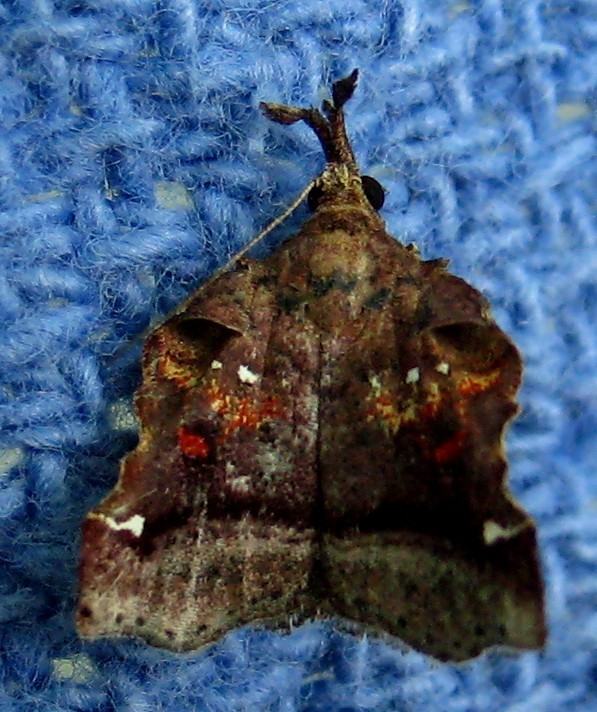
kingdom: Animalia
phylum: Arthropoda
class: Insecta
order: Lepidoptera
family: Pyralidae
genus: Clydonopteron
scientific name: Clydonopteron sacculana
